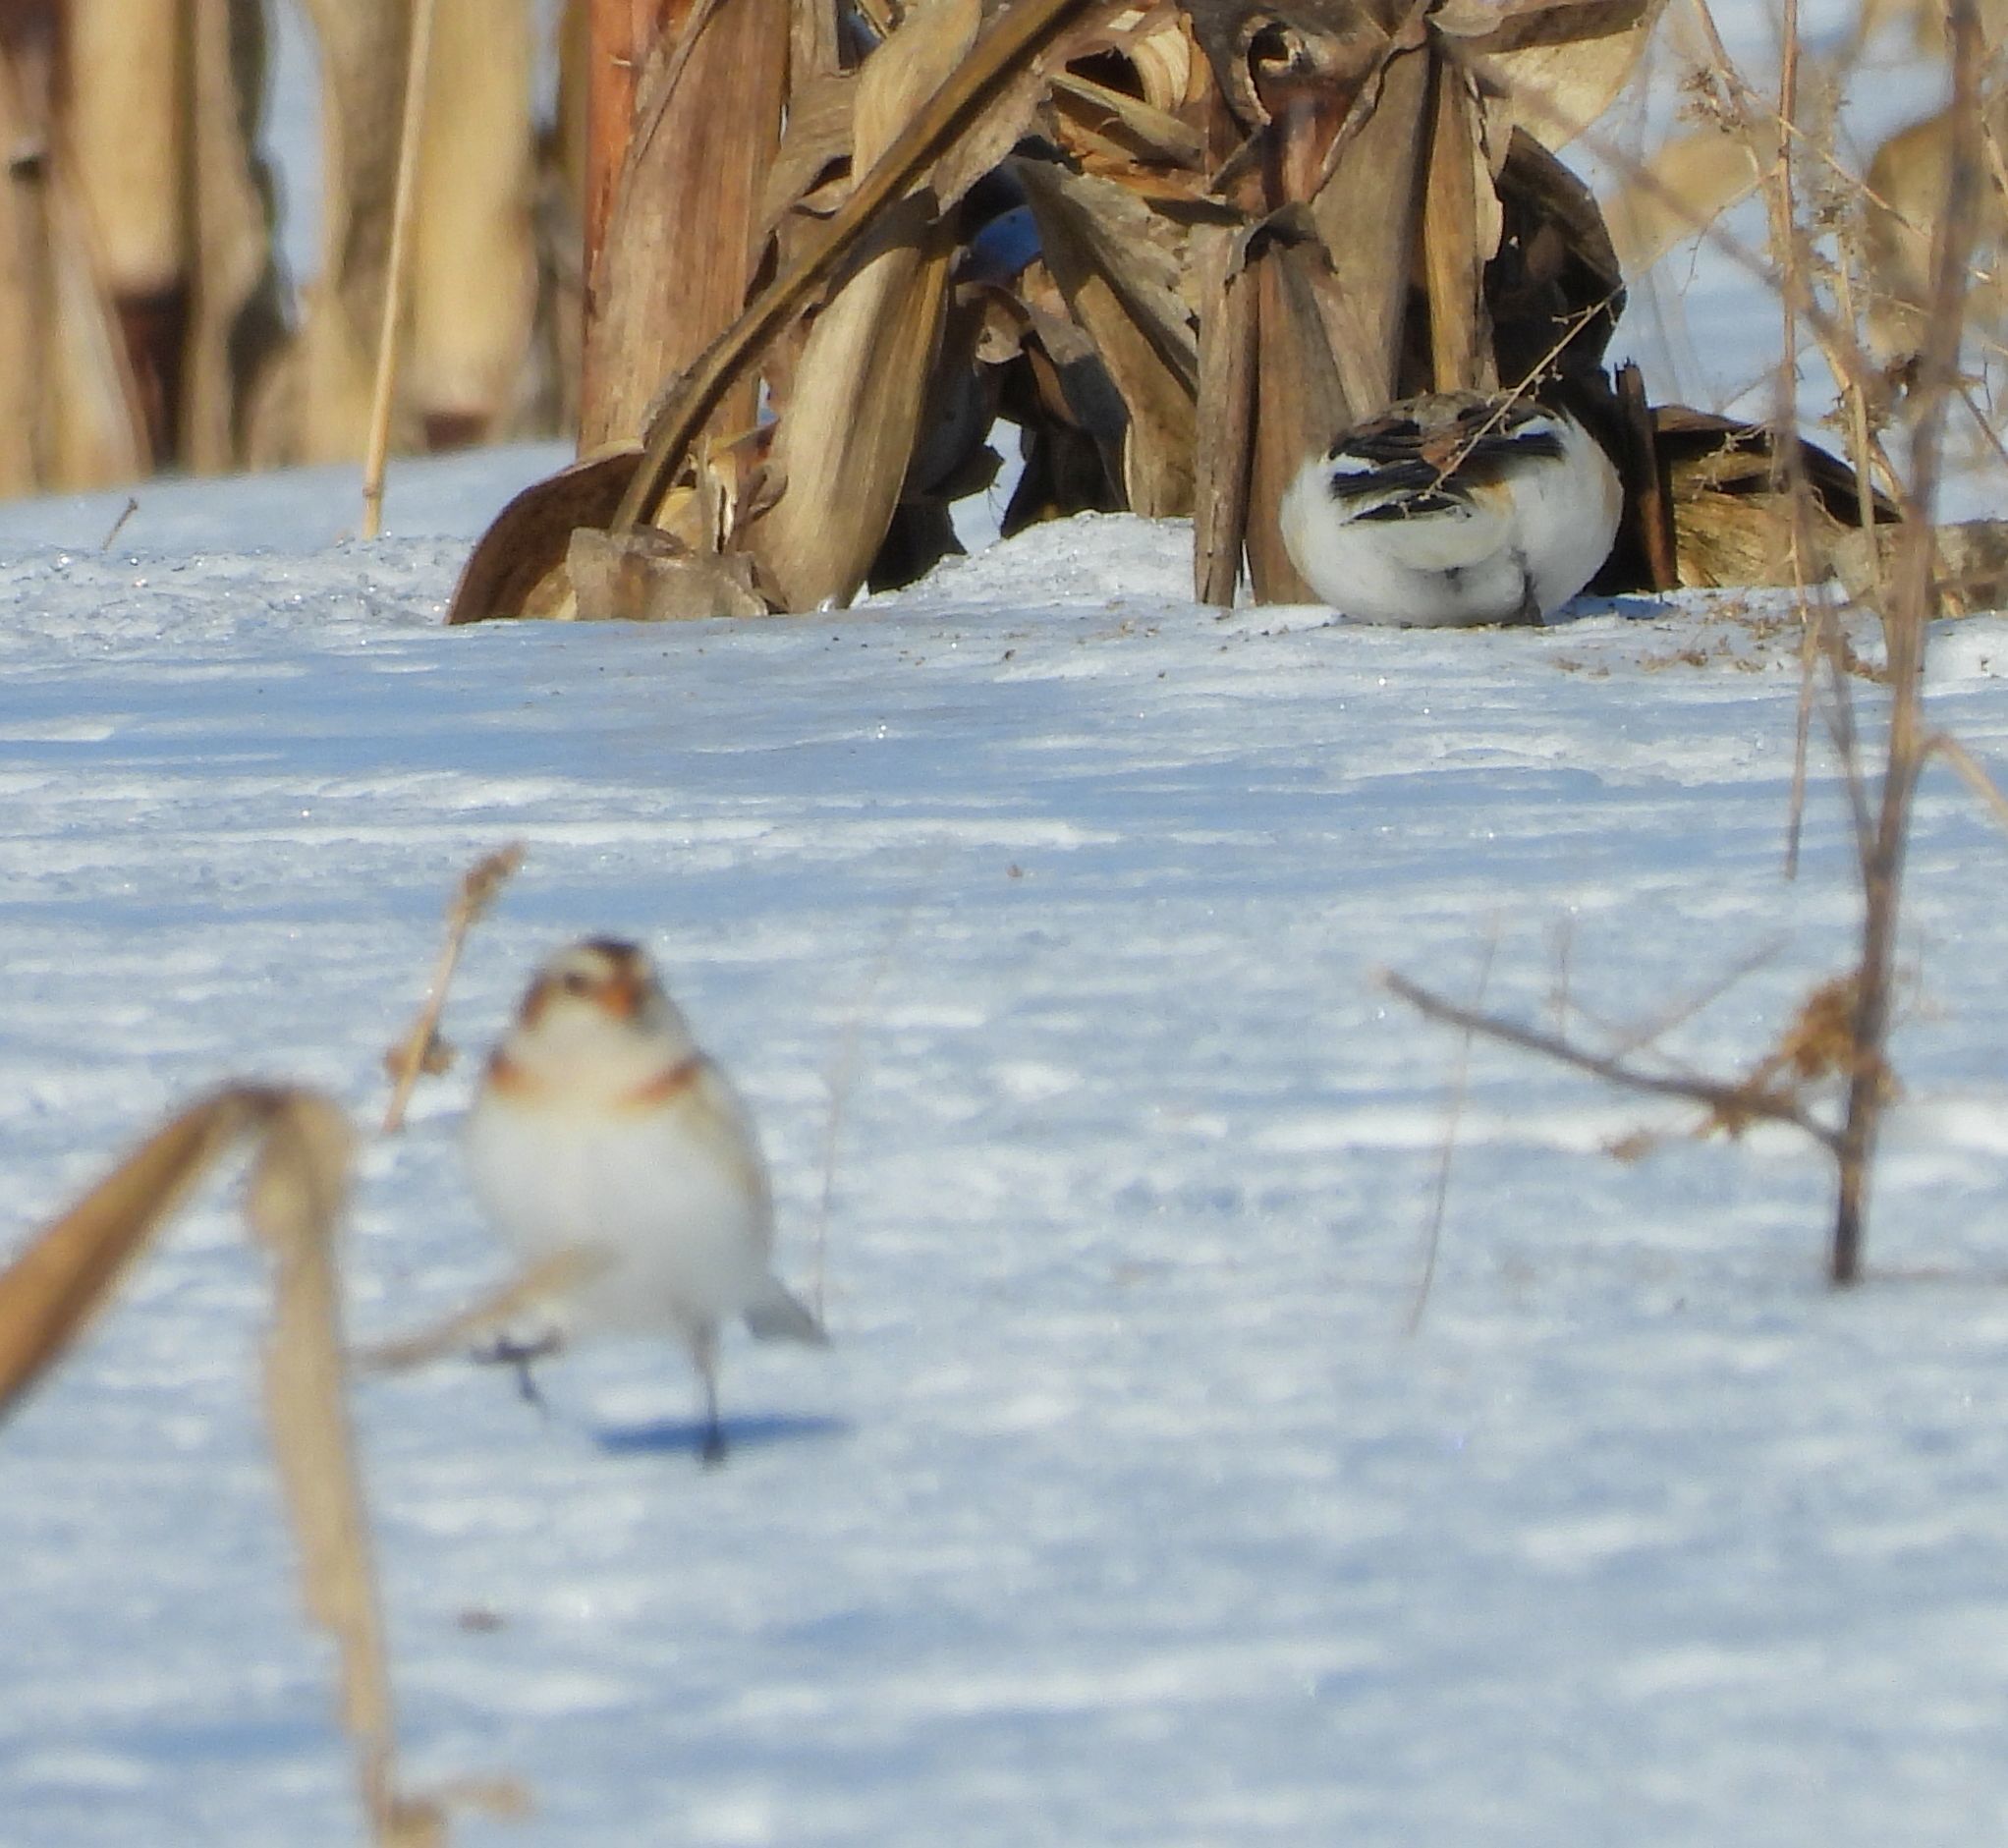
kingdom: Animalia
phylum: Chordata
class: Aves
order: Passeriformes
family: Calcariidae
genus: Plectrophenax
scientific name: Plectrophenax nivalis
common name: Snow bunting
